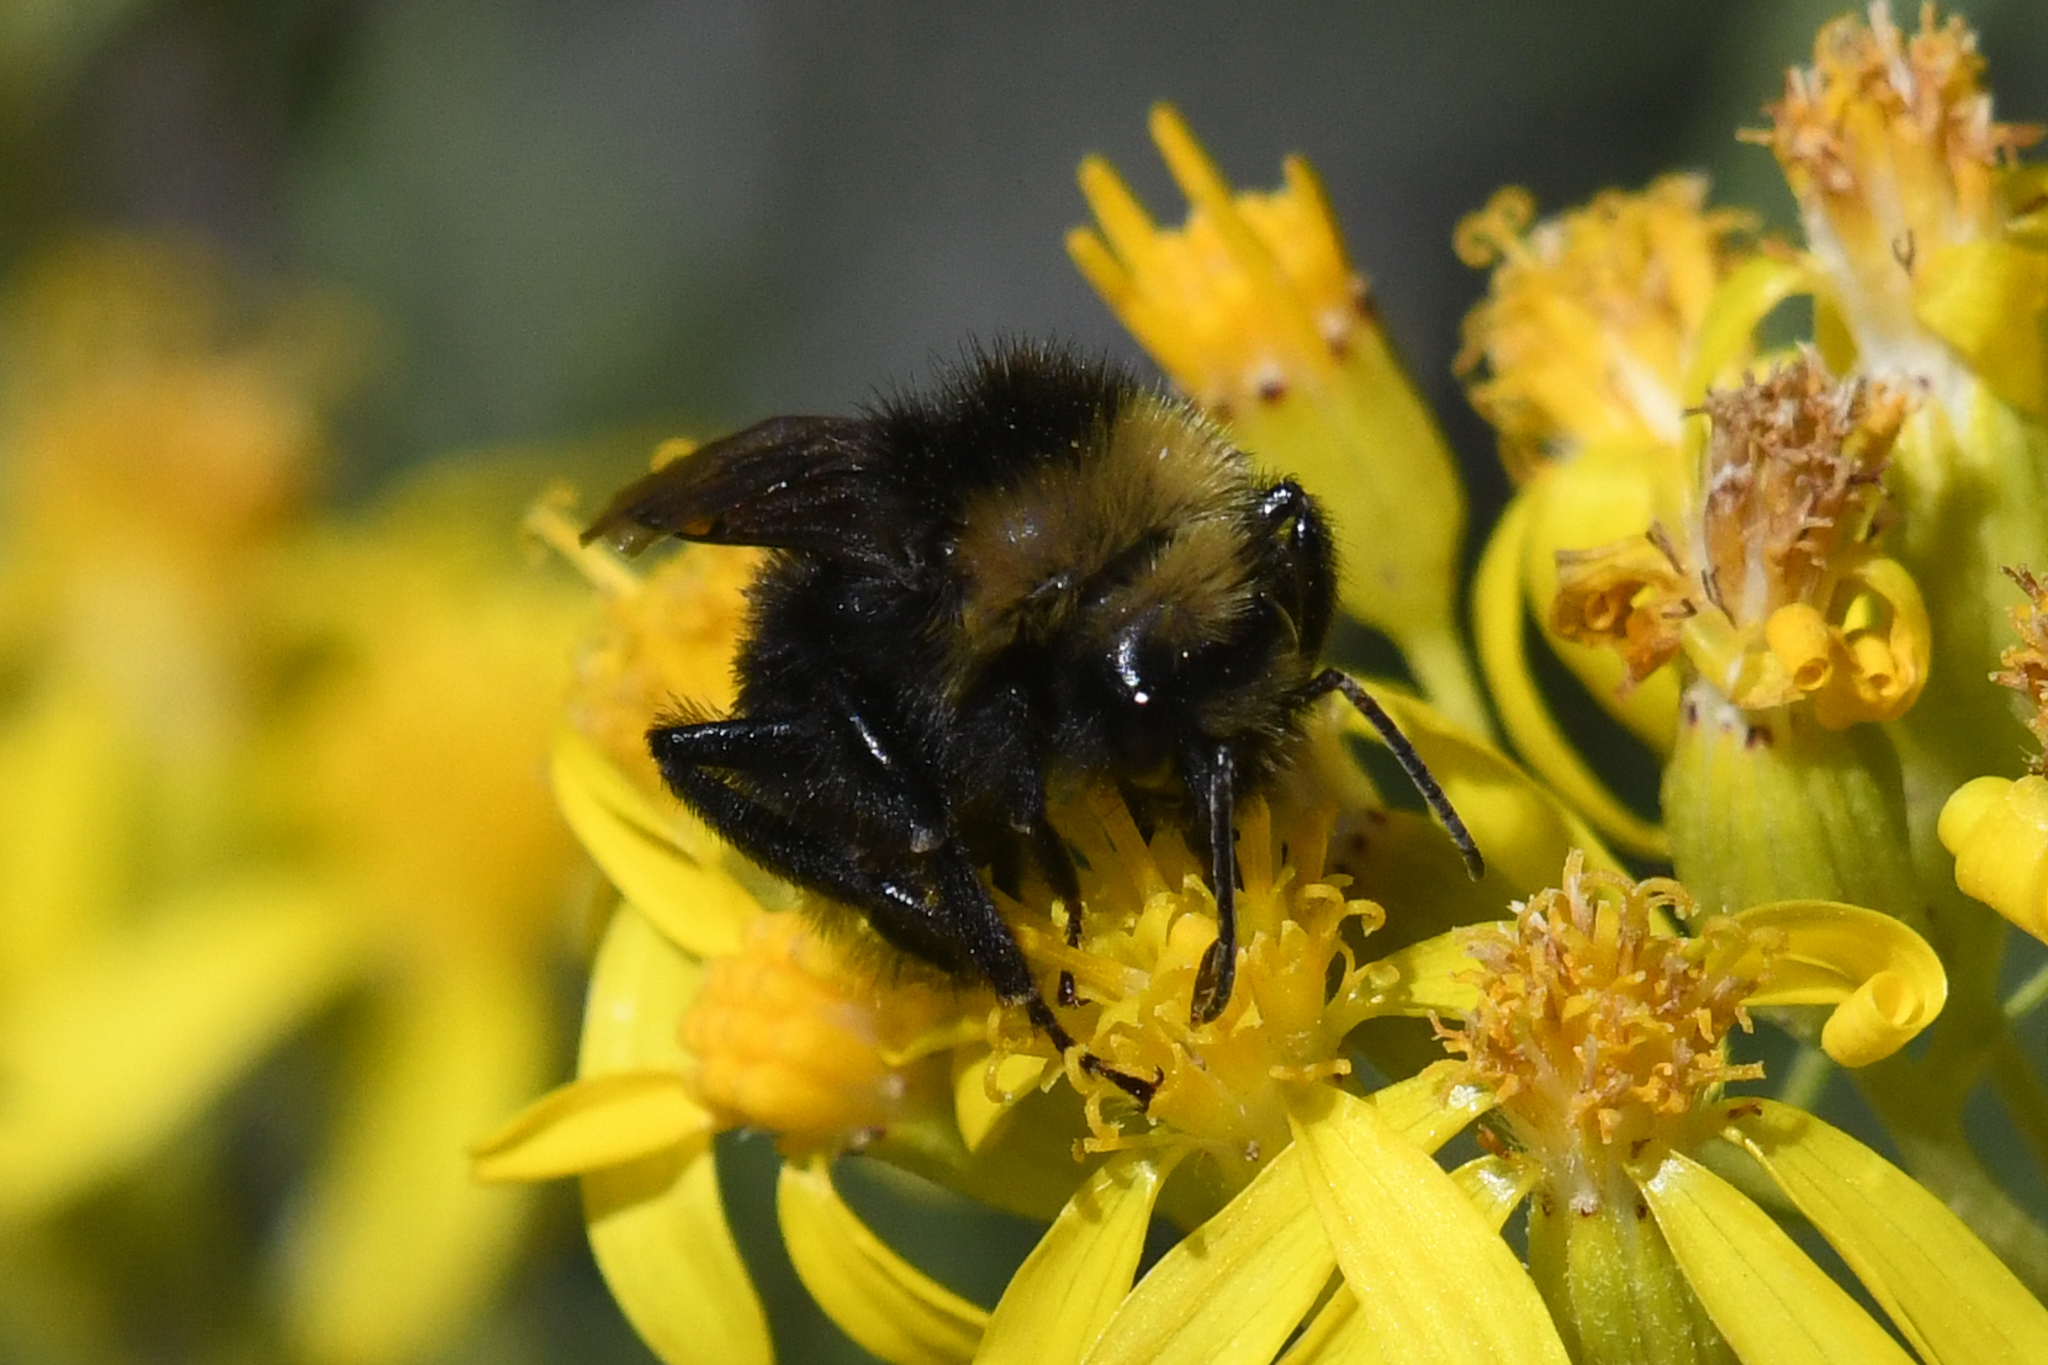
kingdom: Animalia
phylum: Arthropoda
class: Insecta
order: Hymenoptera
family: Apidae
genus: Bombus
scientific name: Bombus insularis
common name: Indiscriminate cuckoo bumble bee
